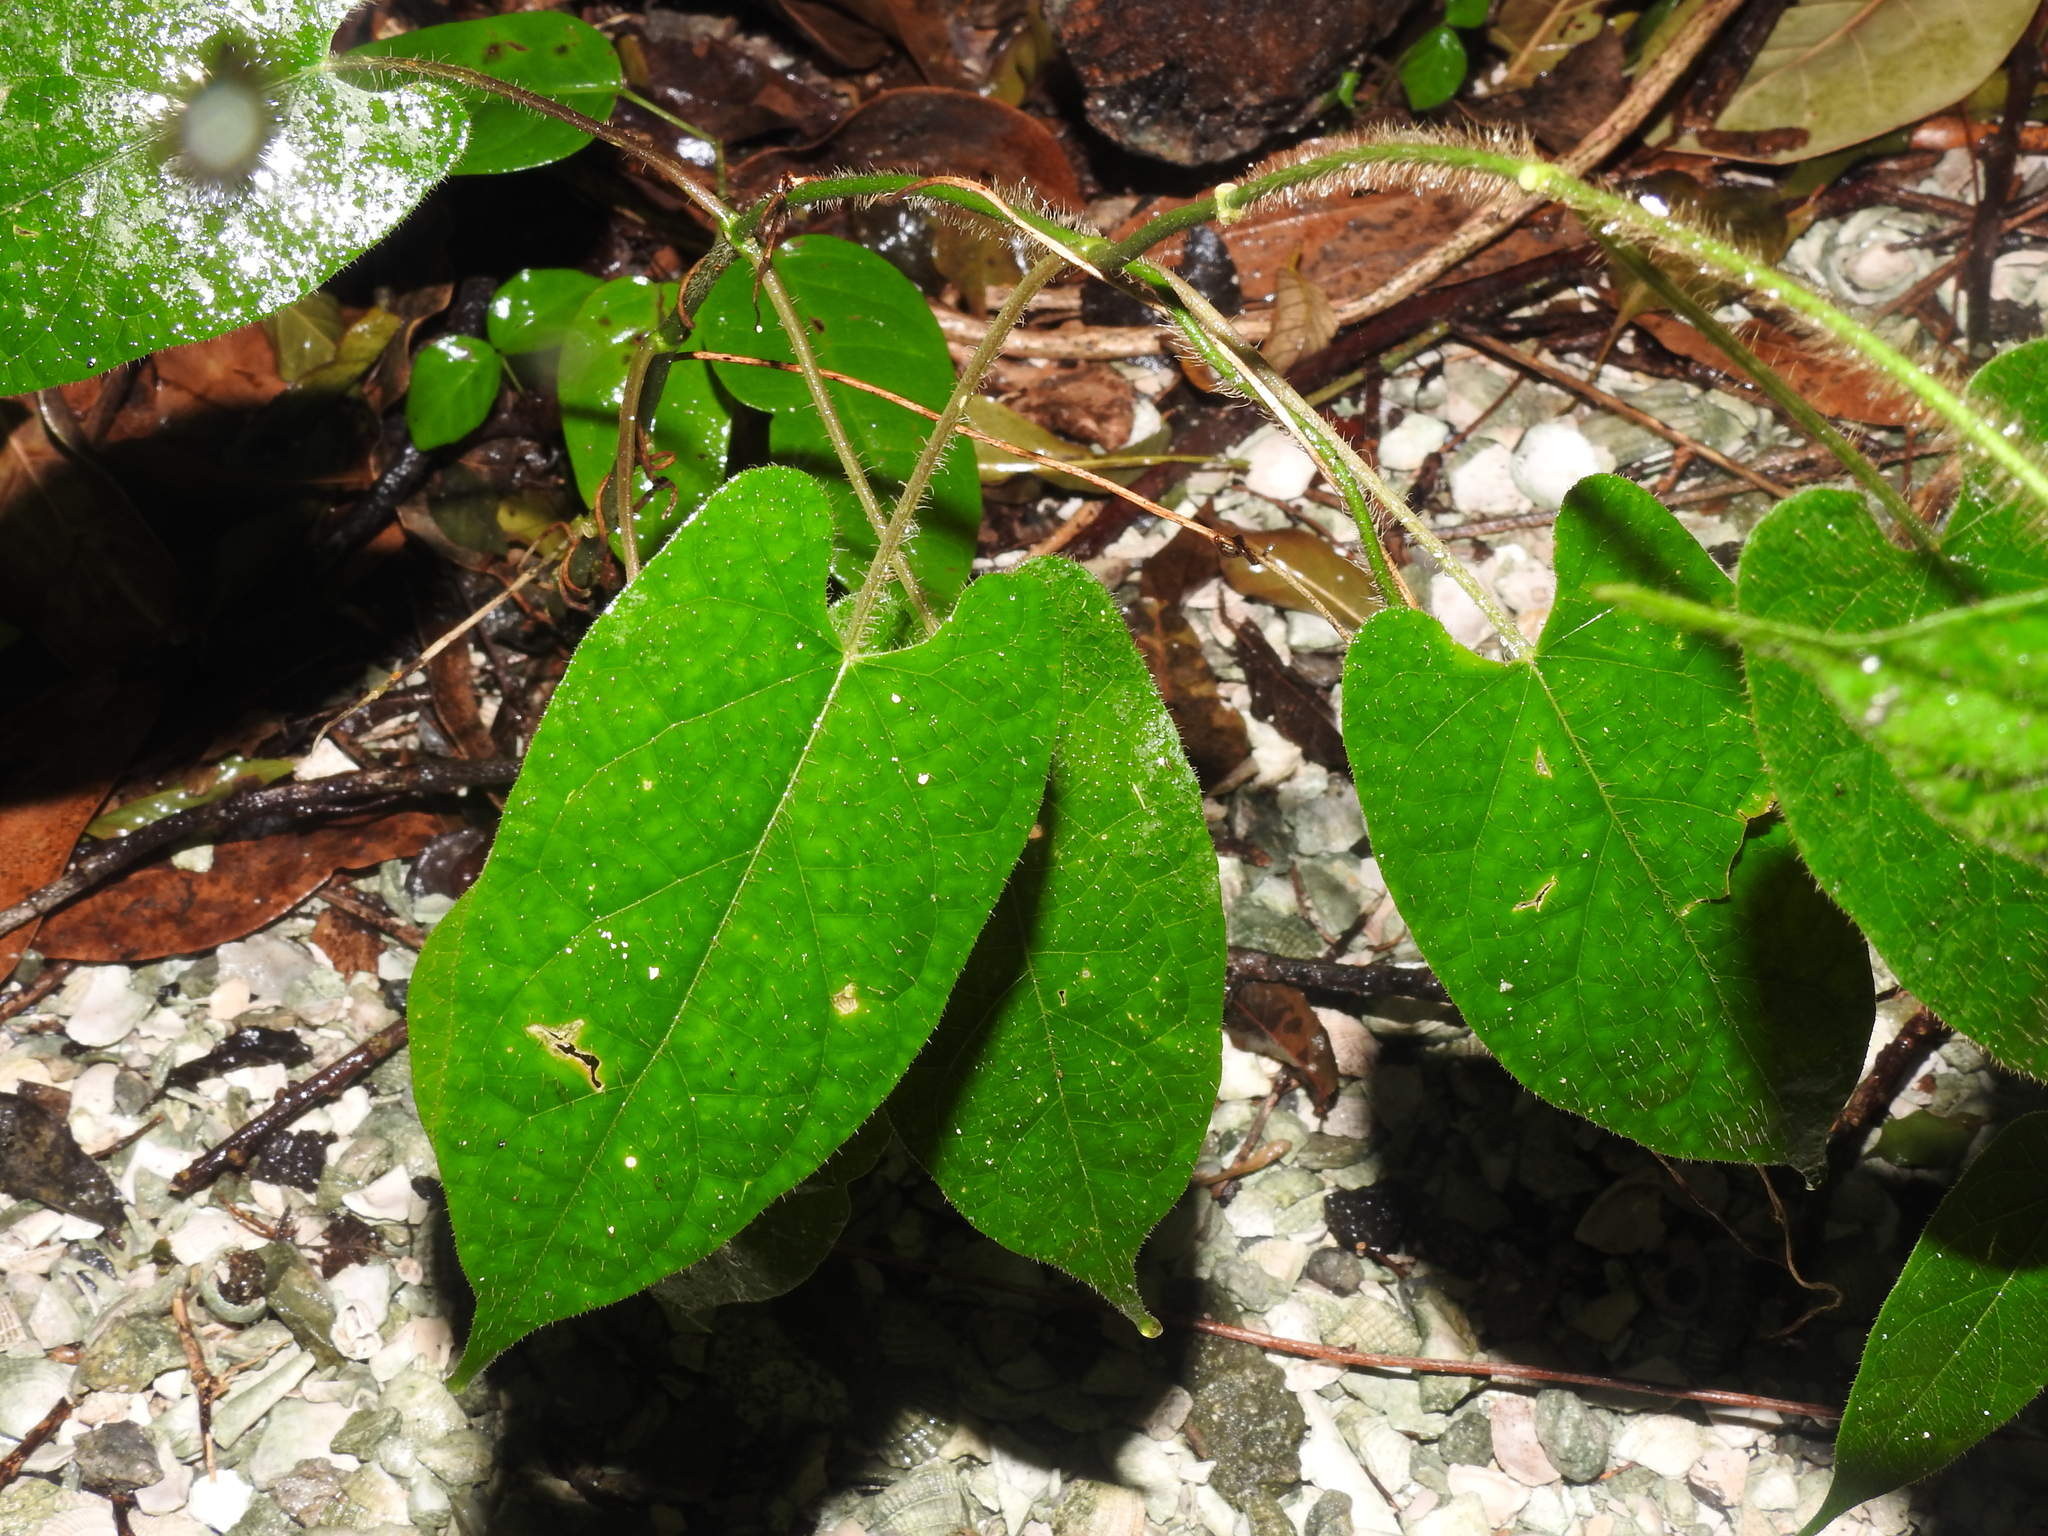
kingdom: Plantae
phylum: Tracheophyta
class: Magnoliopsida
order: Gentianales
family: Apocynaceae
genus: Gonolobus
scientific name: Gonolobus taylorianus
